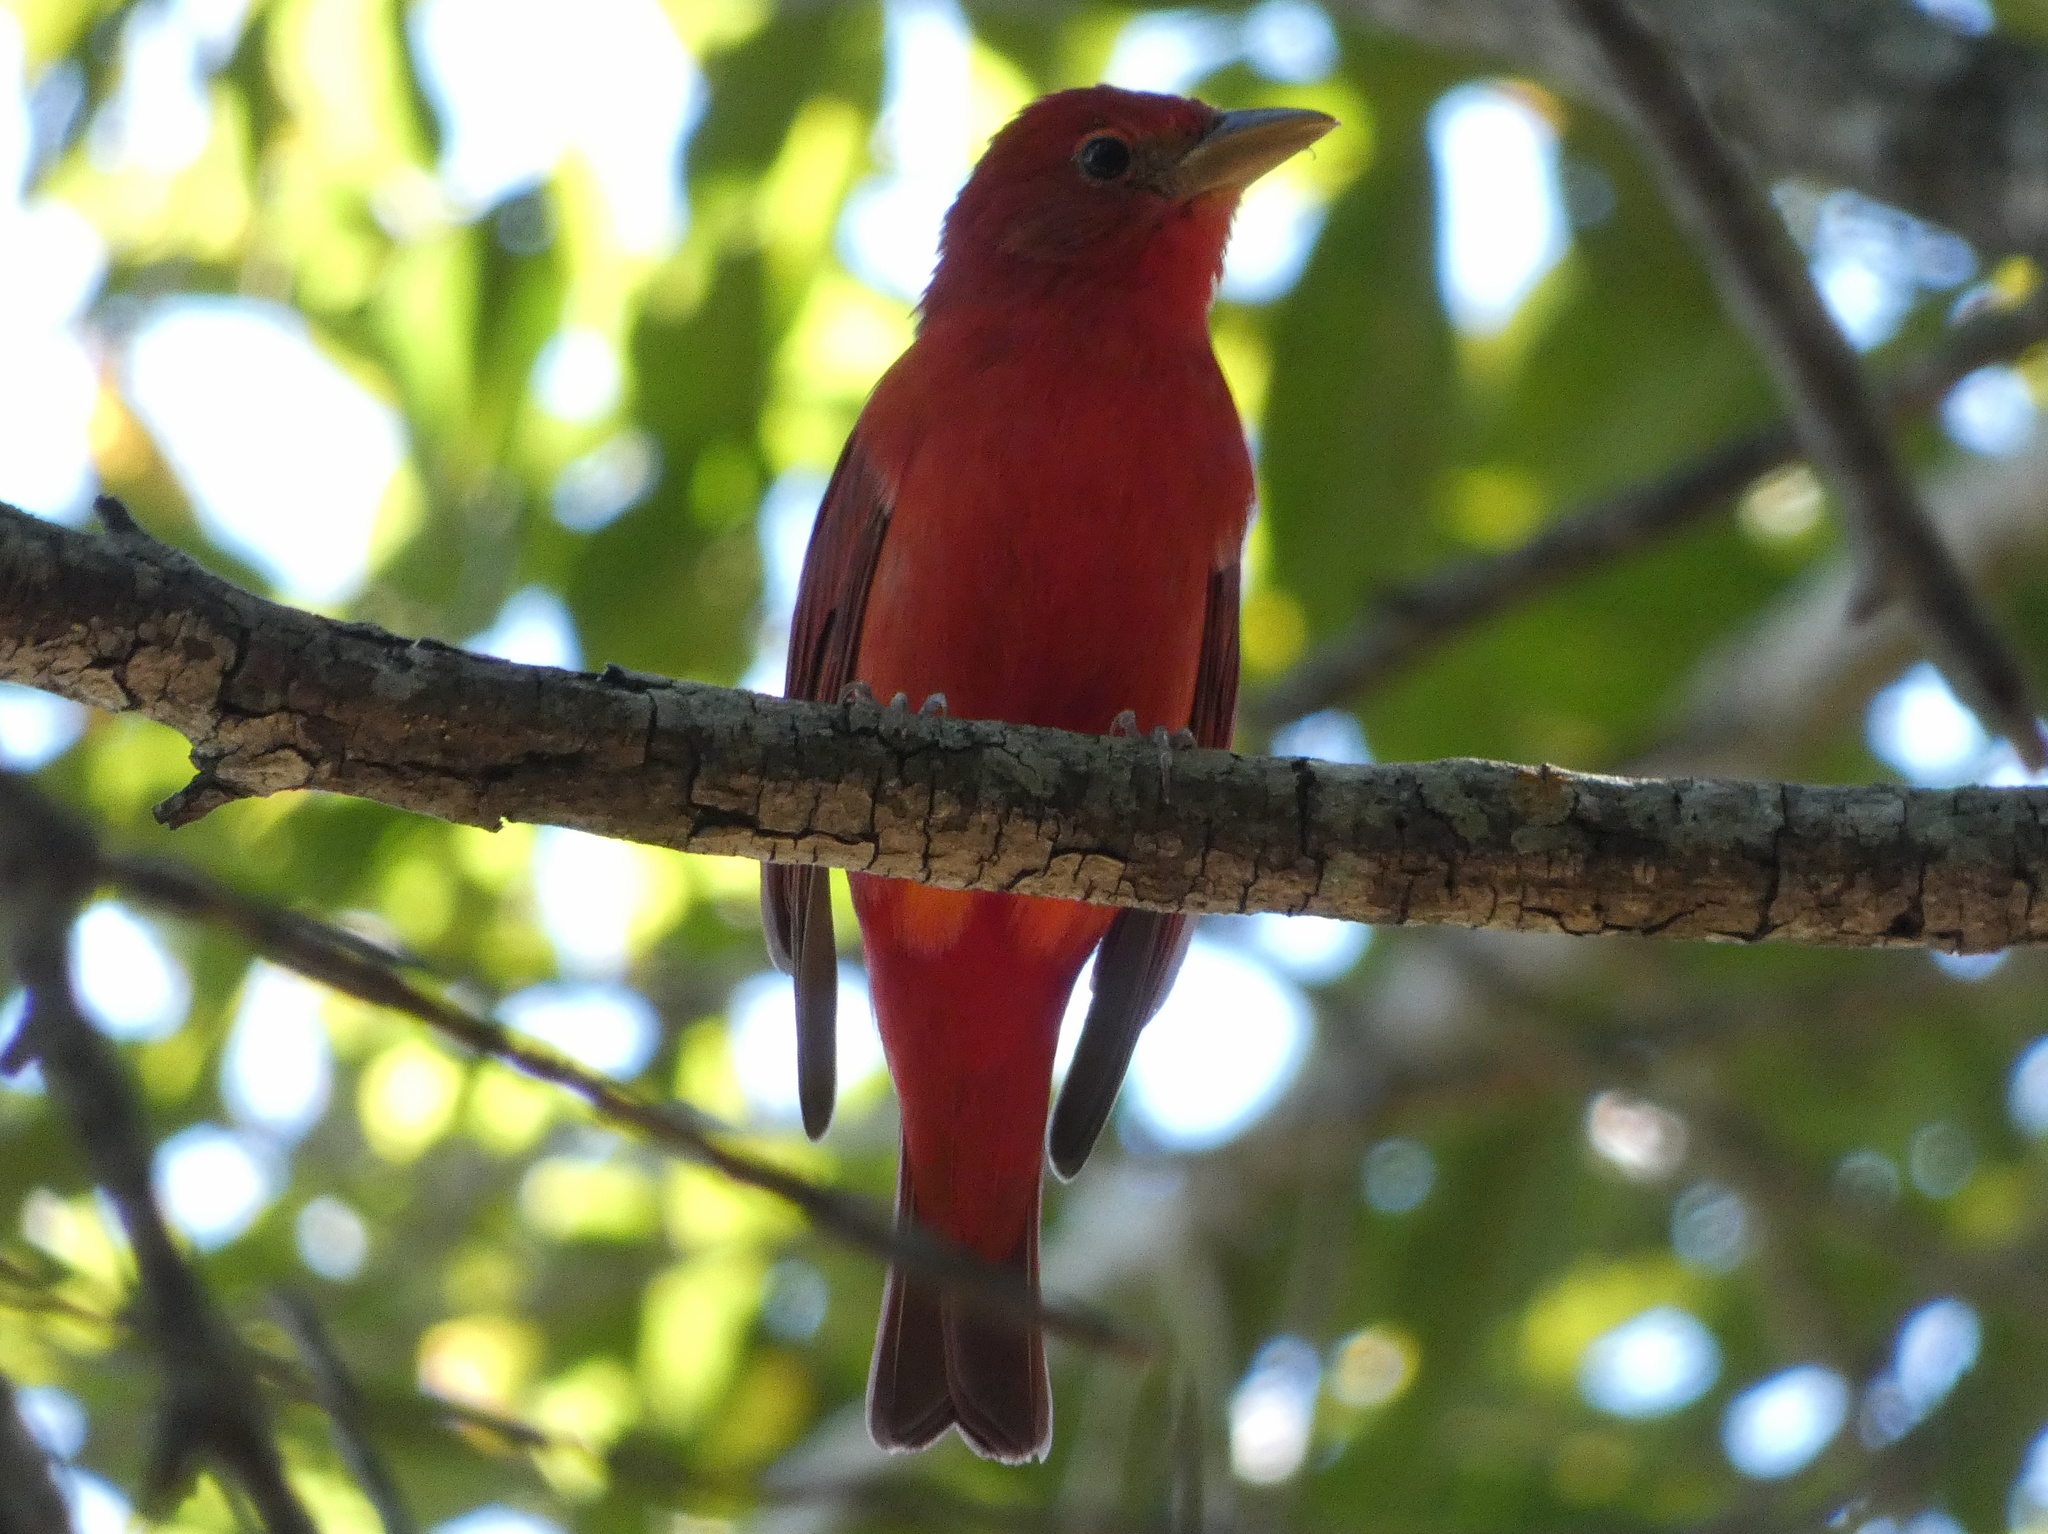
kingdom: Animalia
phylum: Chordata
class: Aves
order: Passeriformes
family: Cardinalidae
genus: Piranga
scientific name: Piranga rubra
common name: Summer tanager
